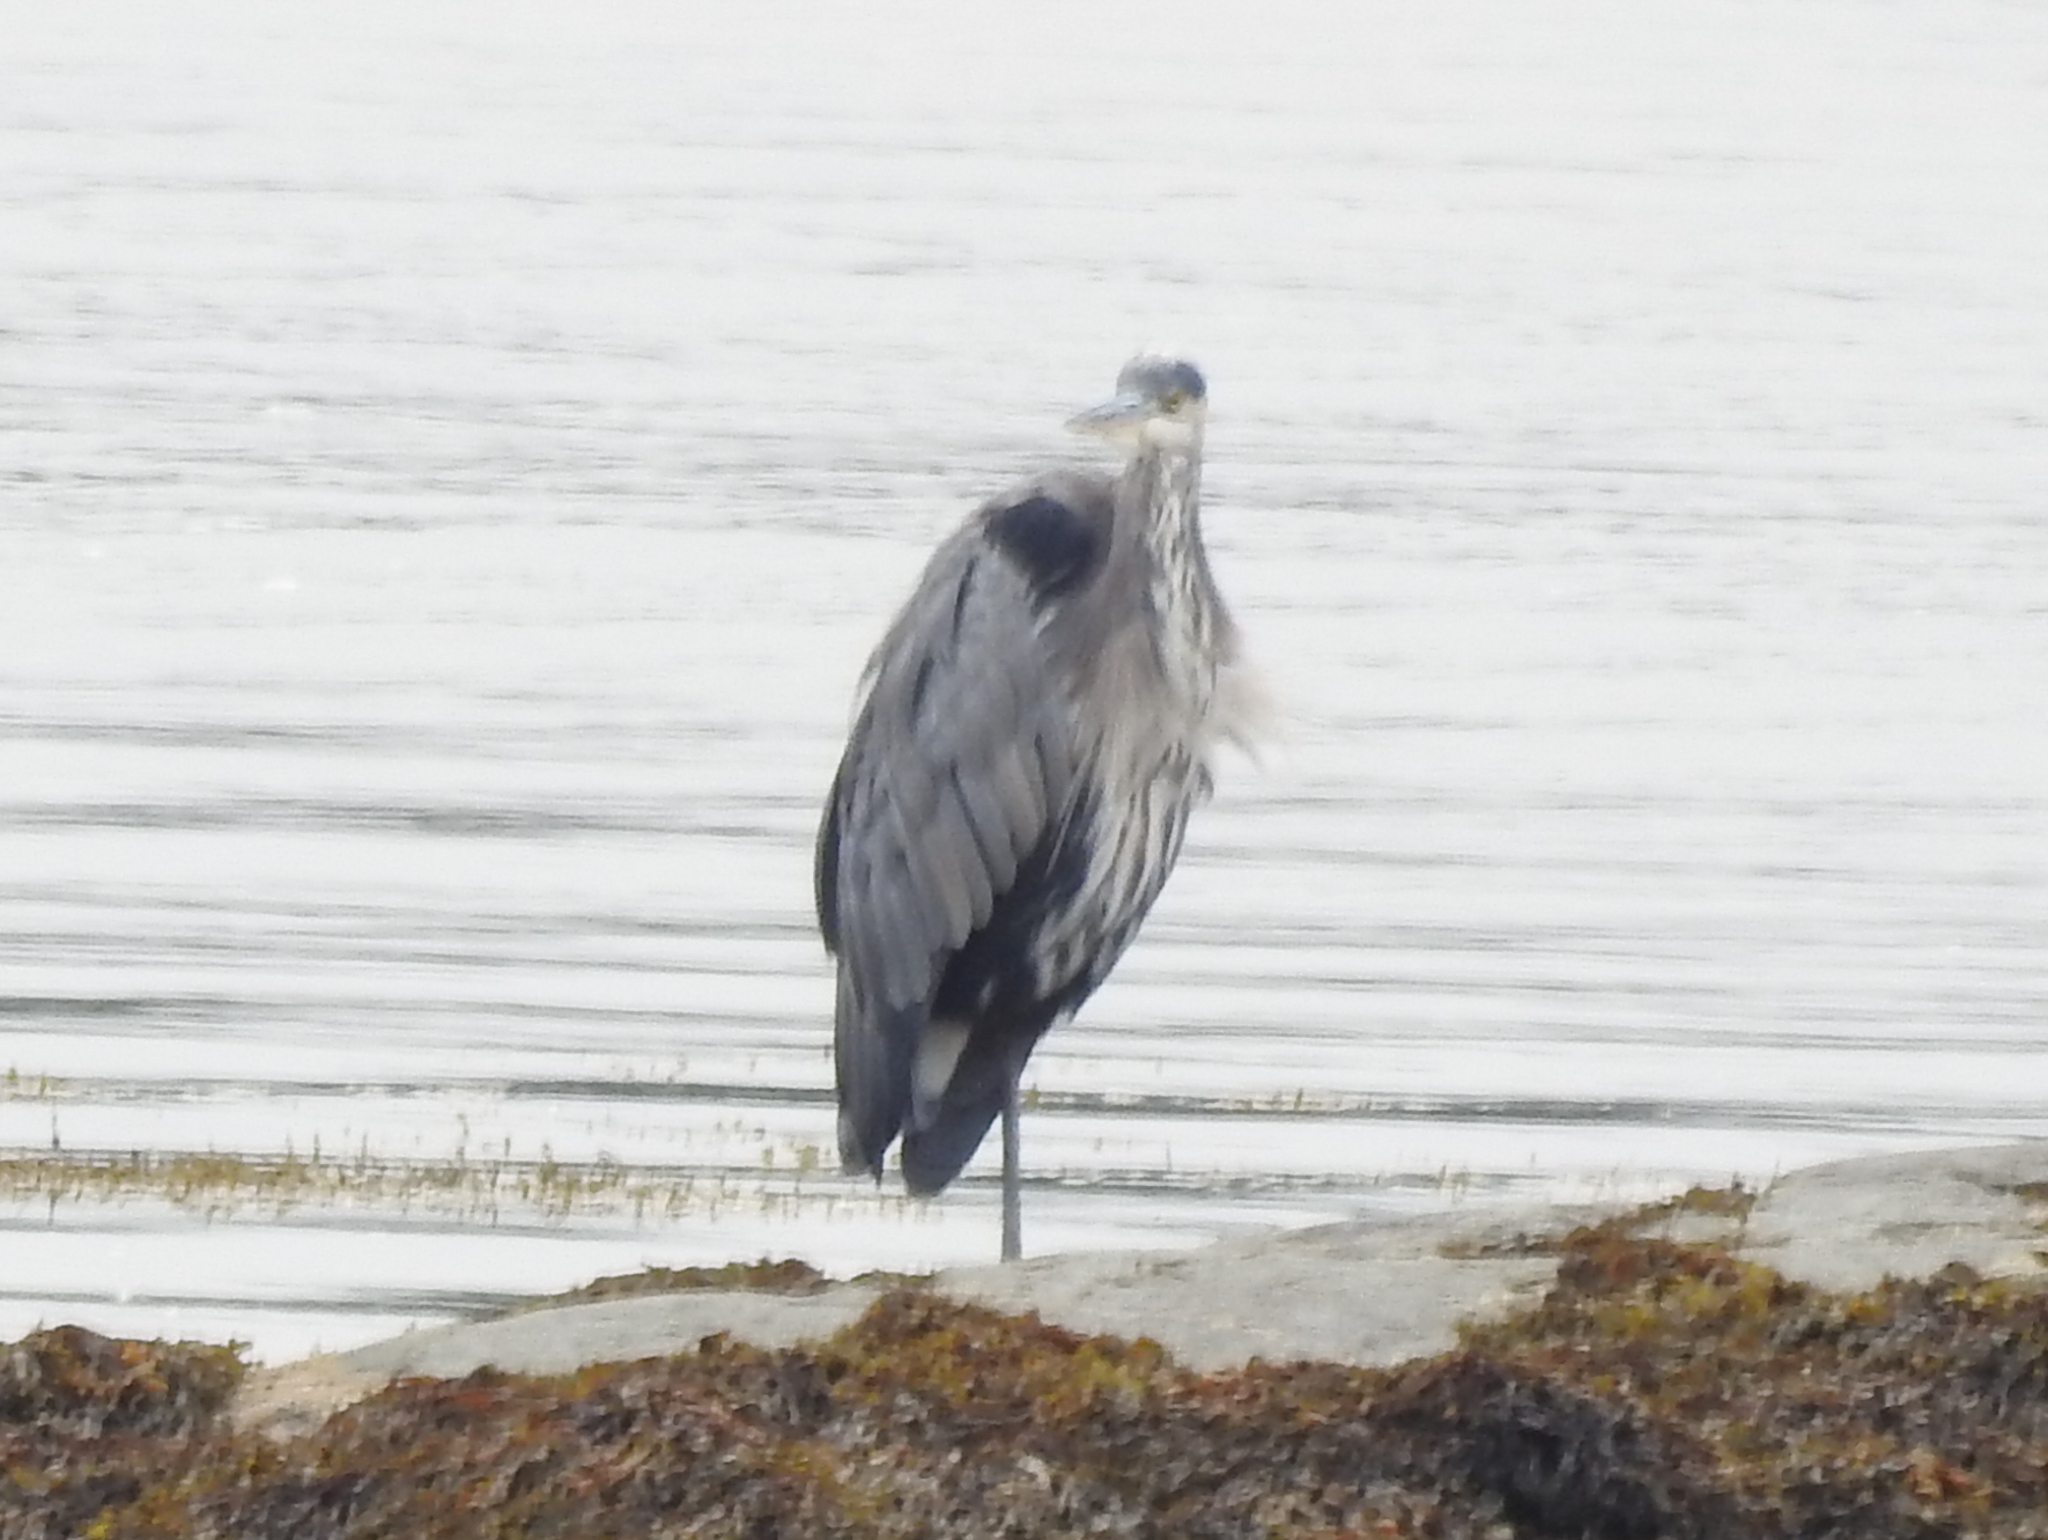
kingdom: Animalia
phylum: Chordata
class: Aves
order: Pelecaniformes
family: Ardeidae
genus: Ardea
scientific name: Ardea herodias
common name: Great blue heron
